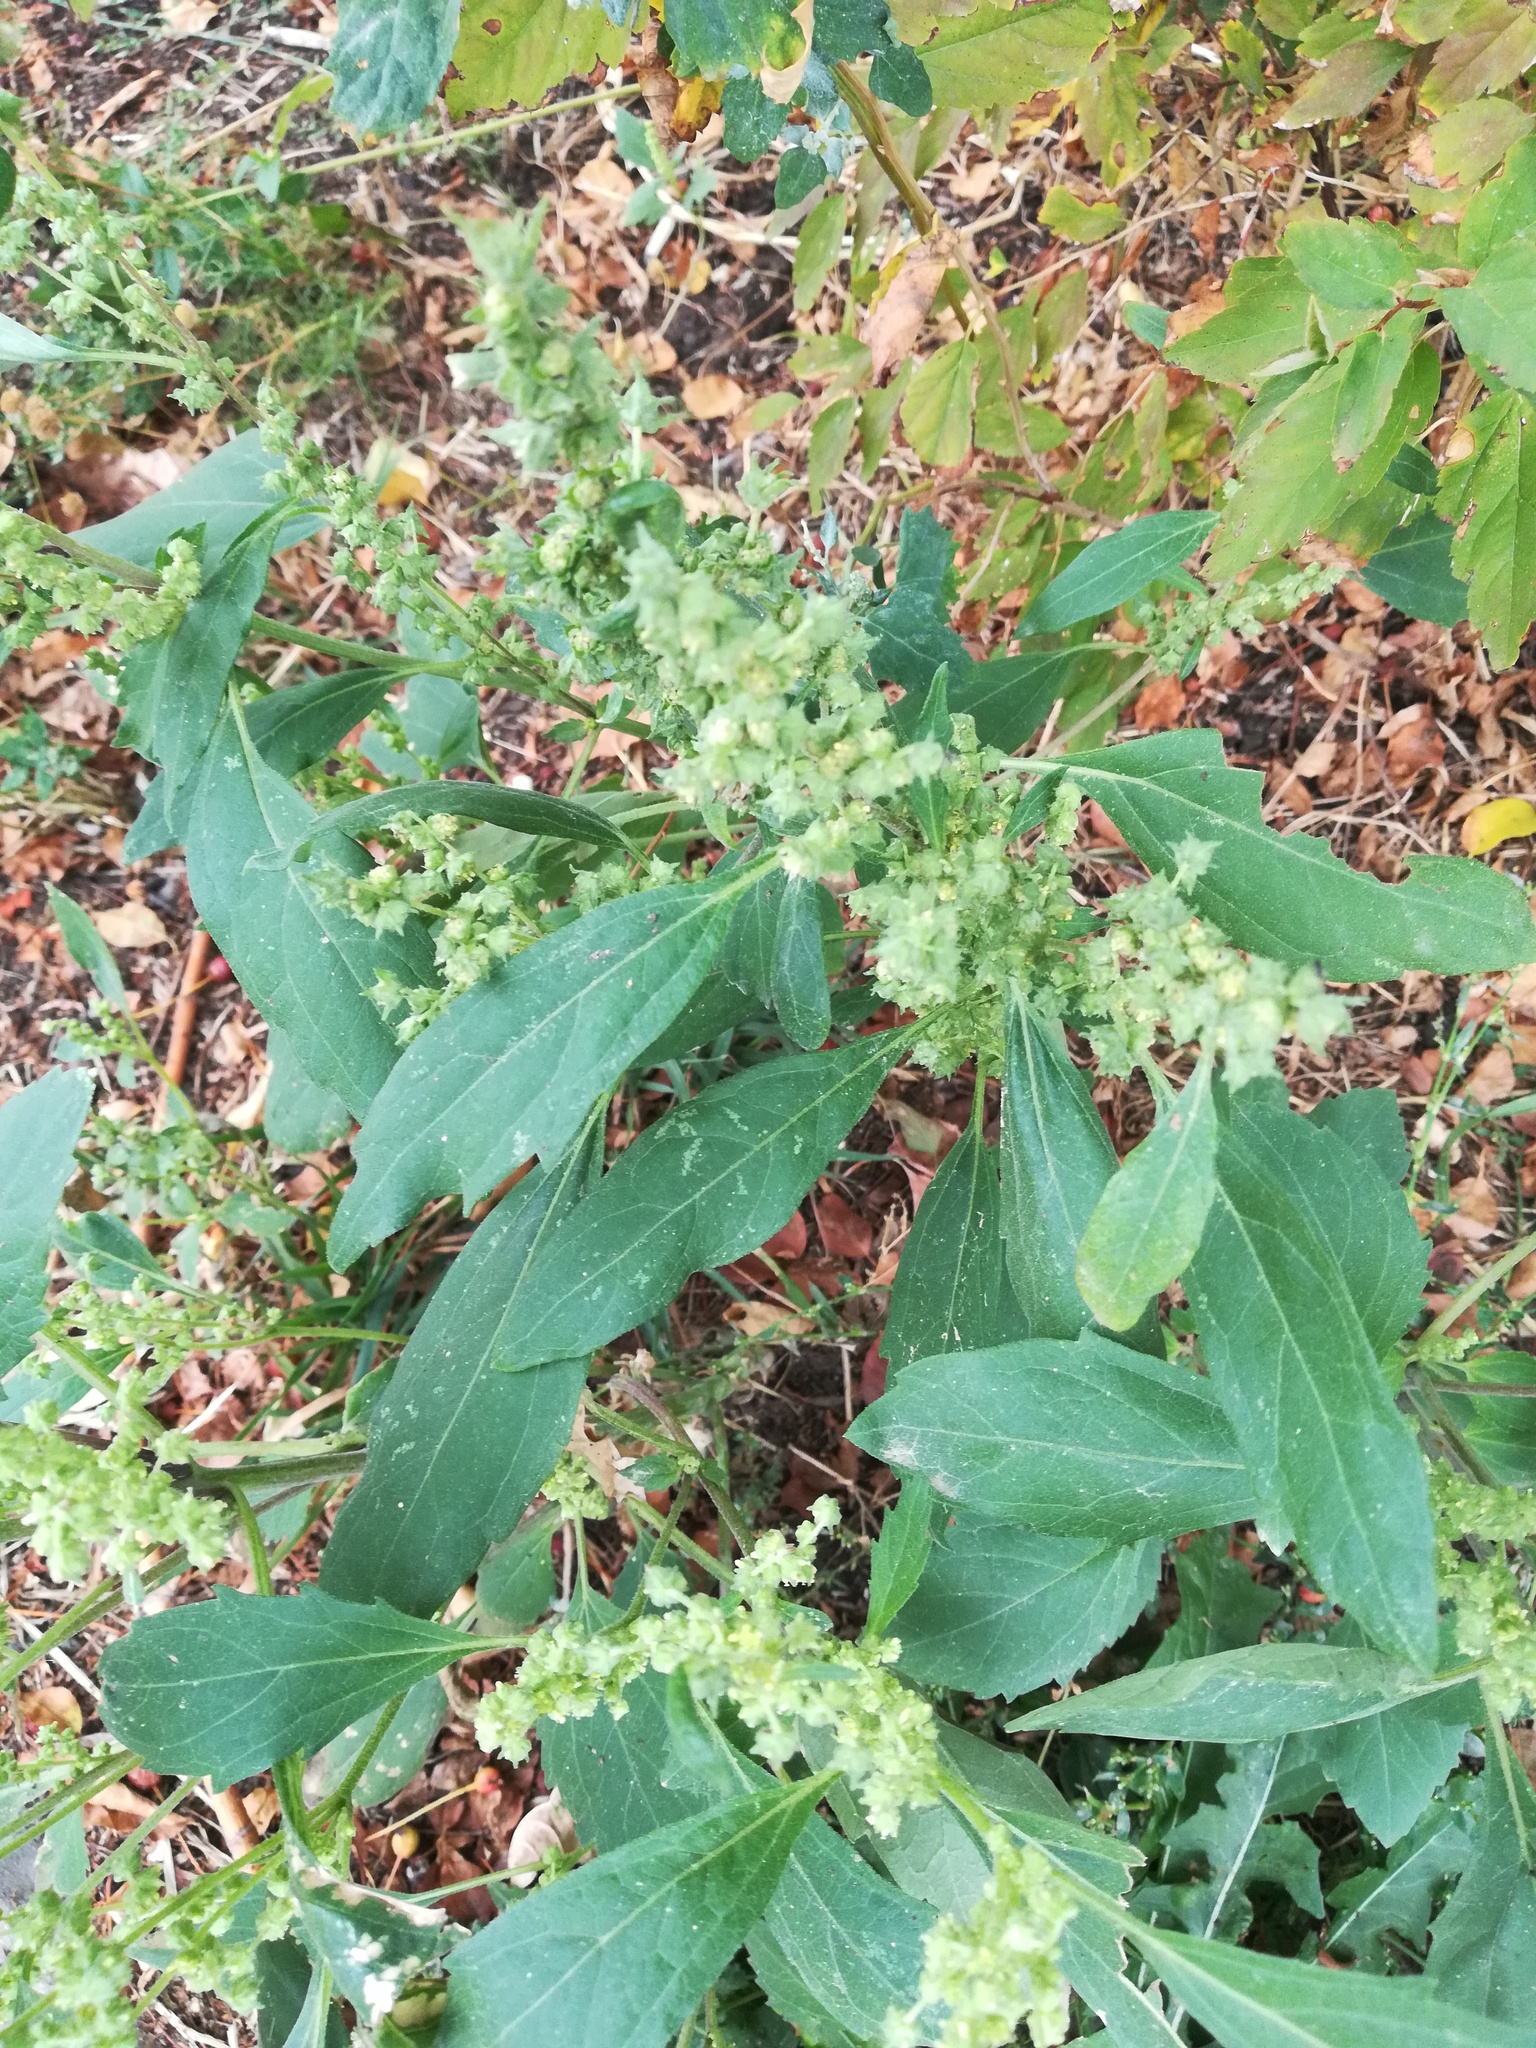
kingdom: Plantae
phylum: Tracheophyta
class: Magnoliopsida
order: Asterales
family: Asteraceae
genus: Cyclachaena
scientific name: Cyclachaena xanthiifolia
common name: Giant sumpweed
